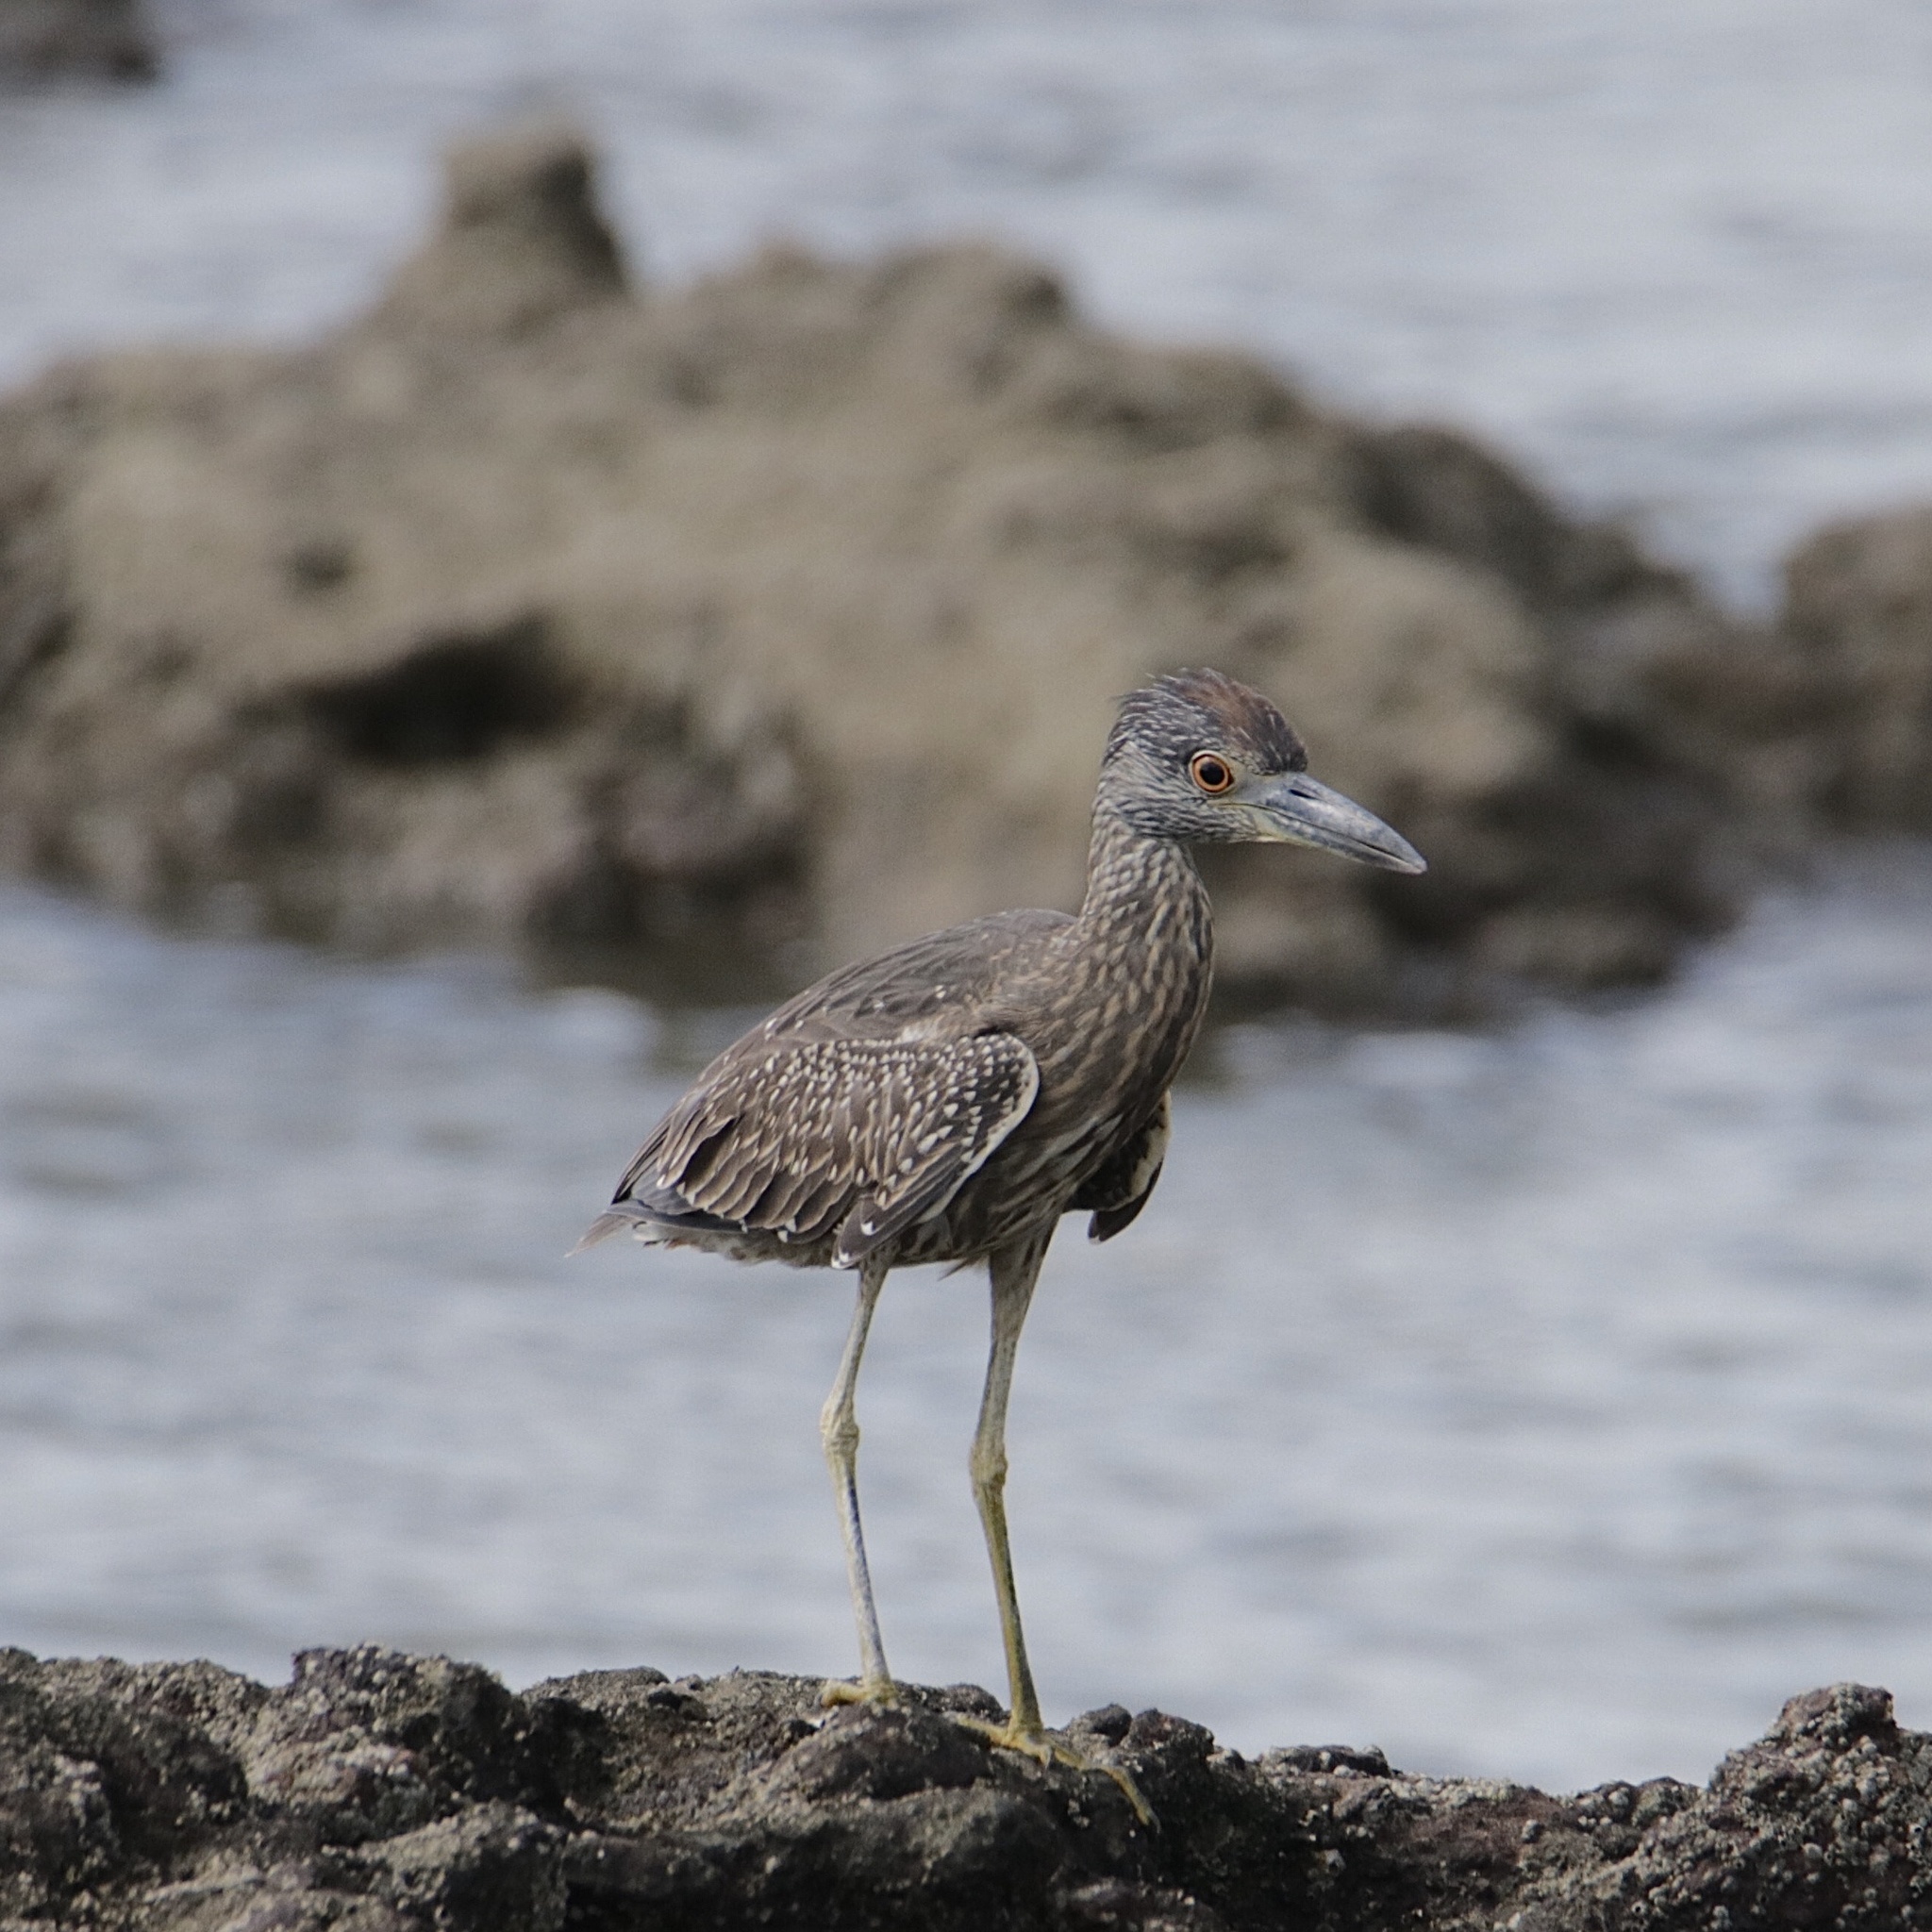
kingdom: Animalia
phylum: Chordata
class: Aves
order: Pelecaniformes
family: Ardeidae
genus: Nyctanassa
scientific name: Nyctanassa violacea
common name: Yellow-crowned night heron
